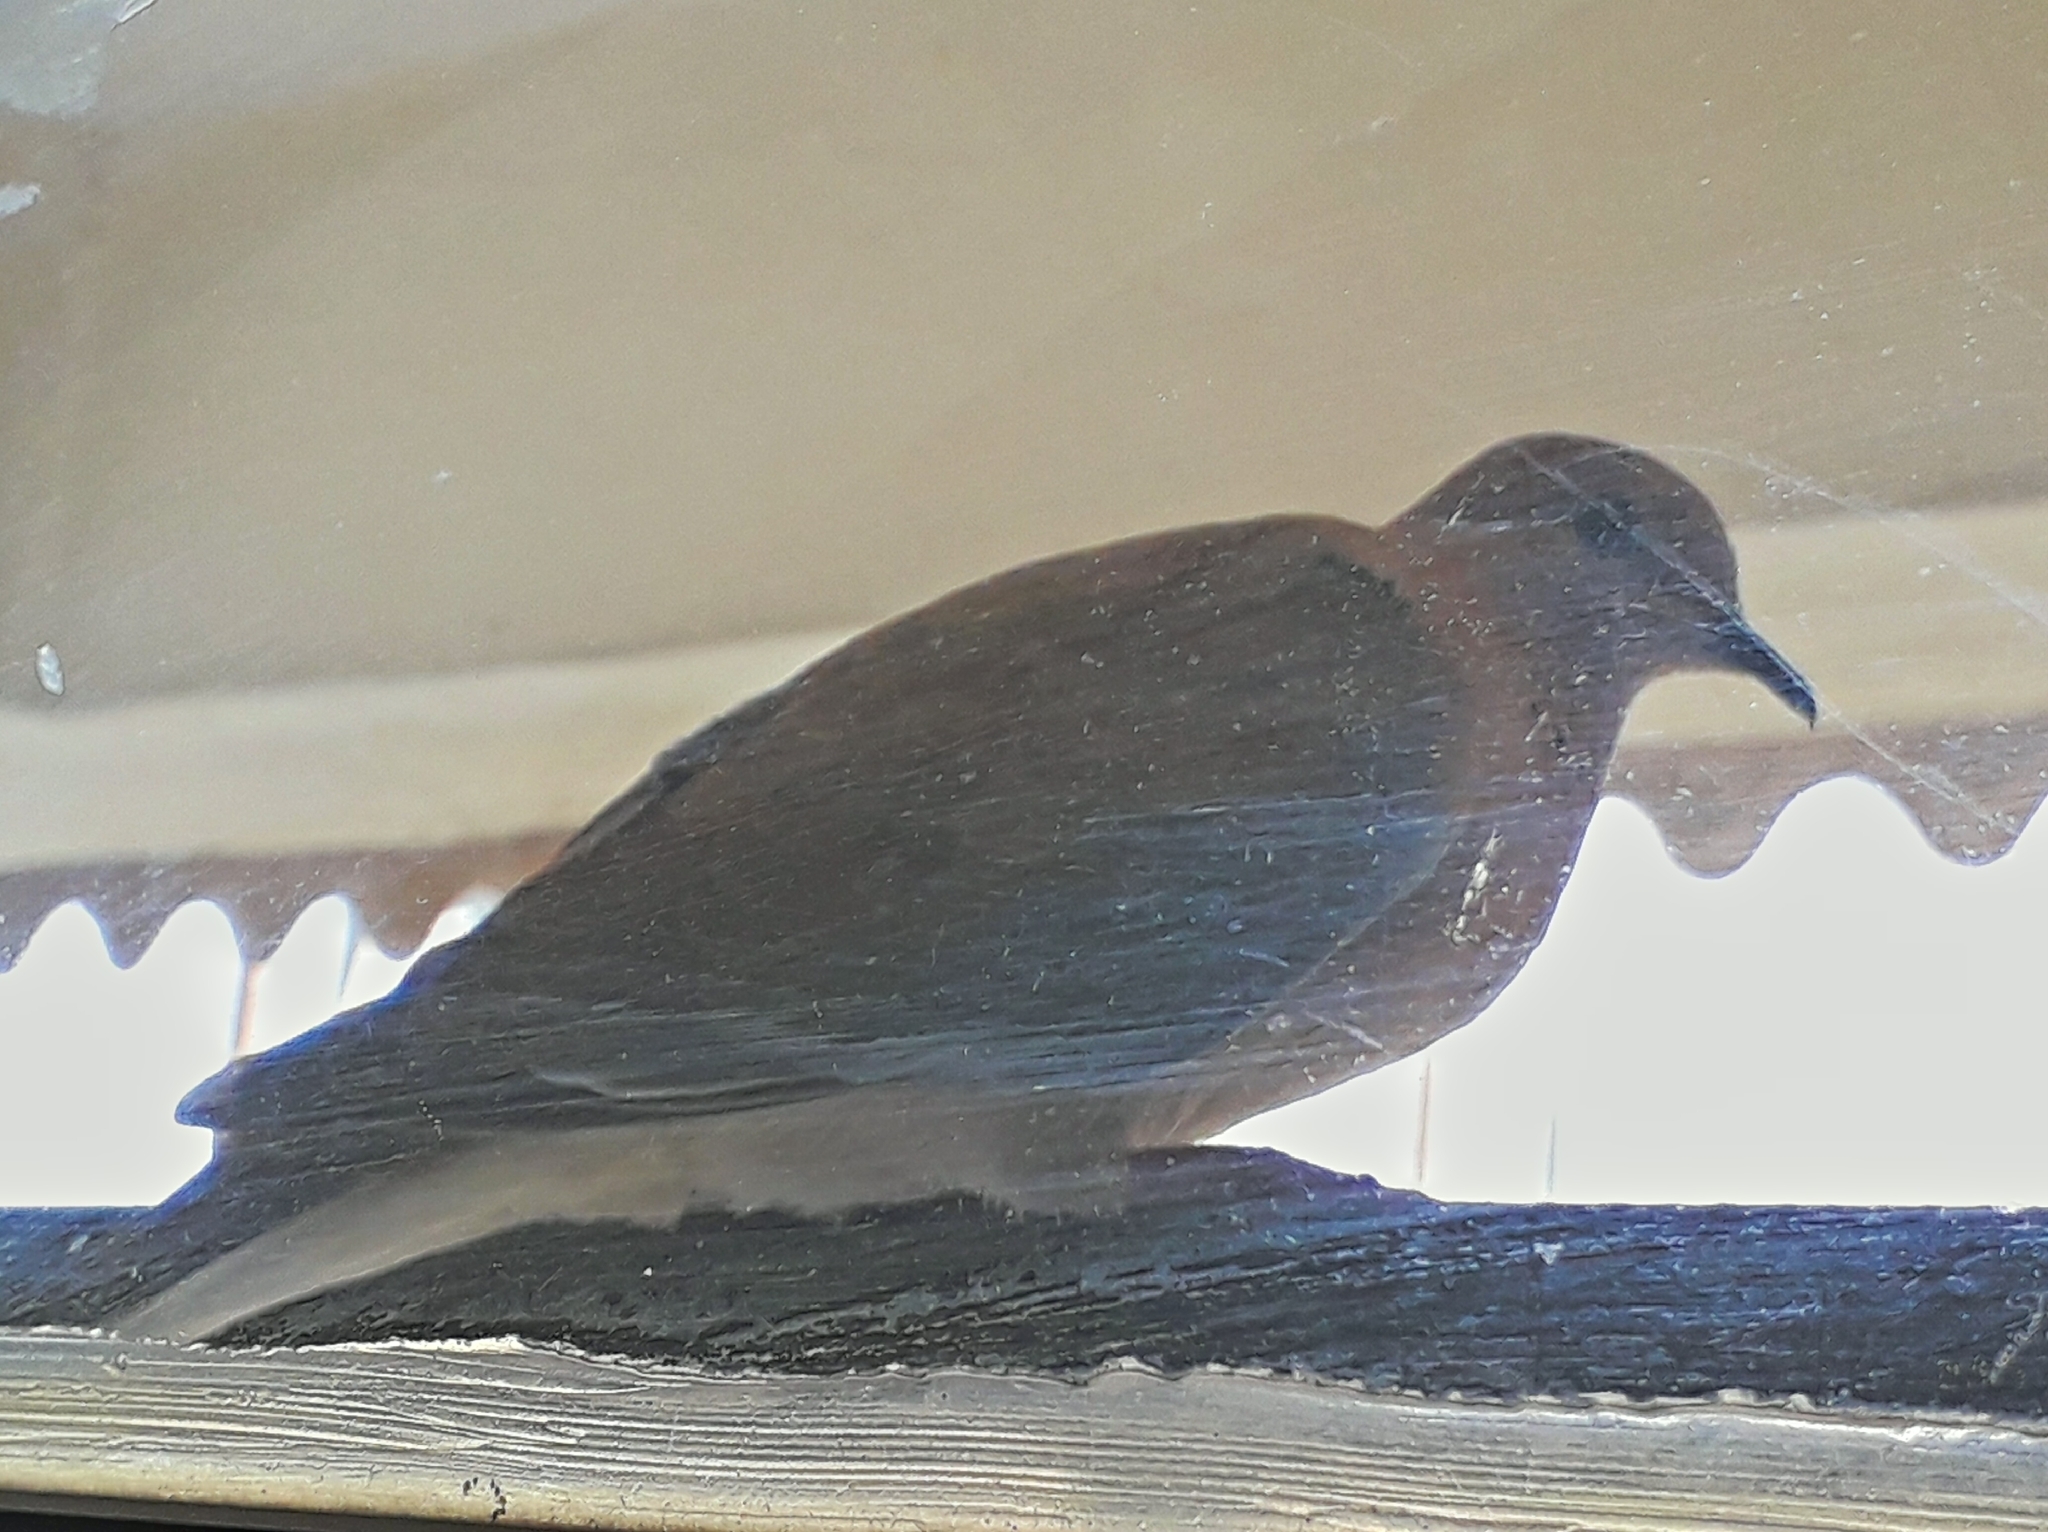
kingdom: Animalia
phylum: Chordata
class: Aves
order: Columbiformes
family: Columbidae
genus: Spilopelia
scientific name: Spilopelia senegalensis
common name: Laughing dove
